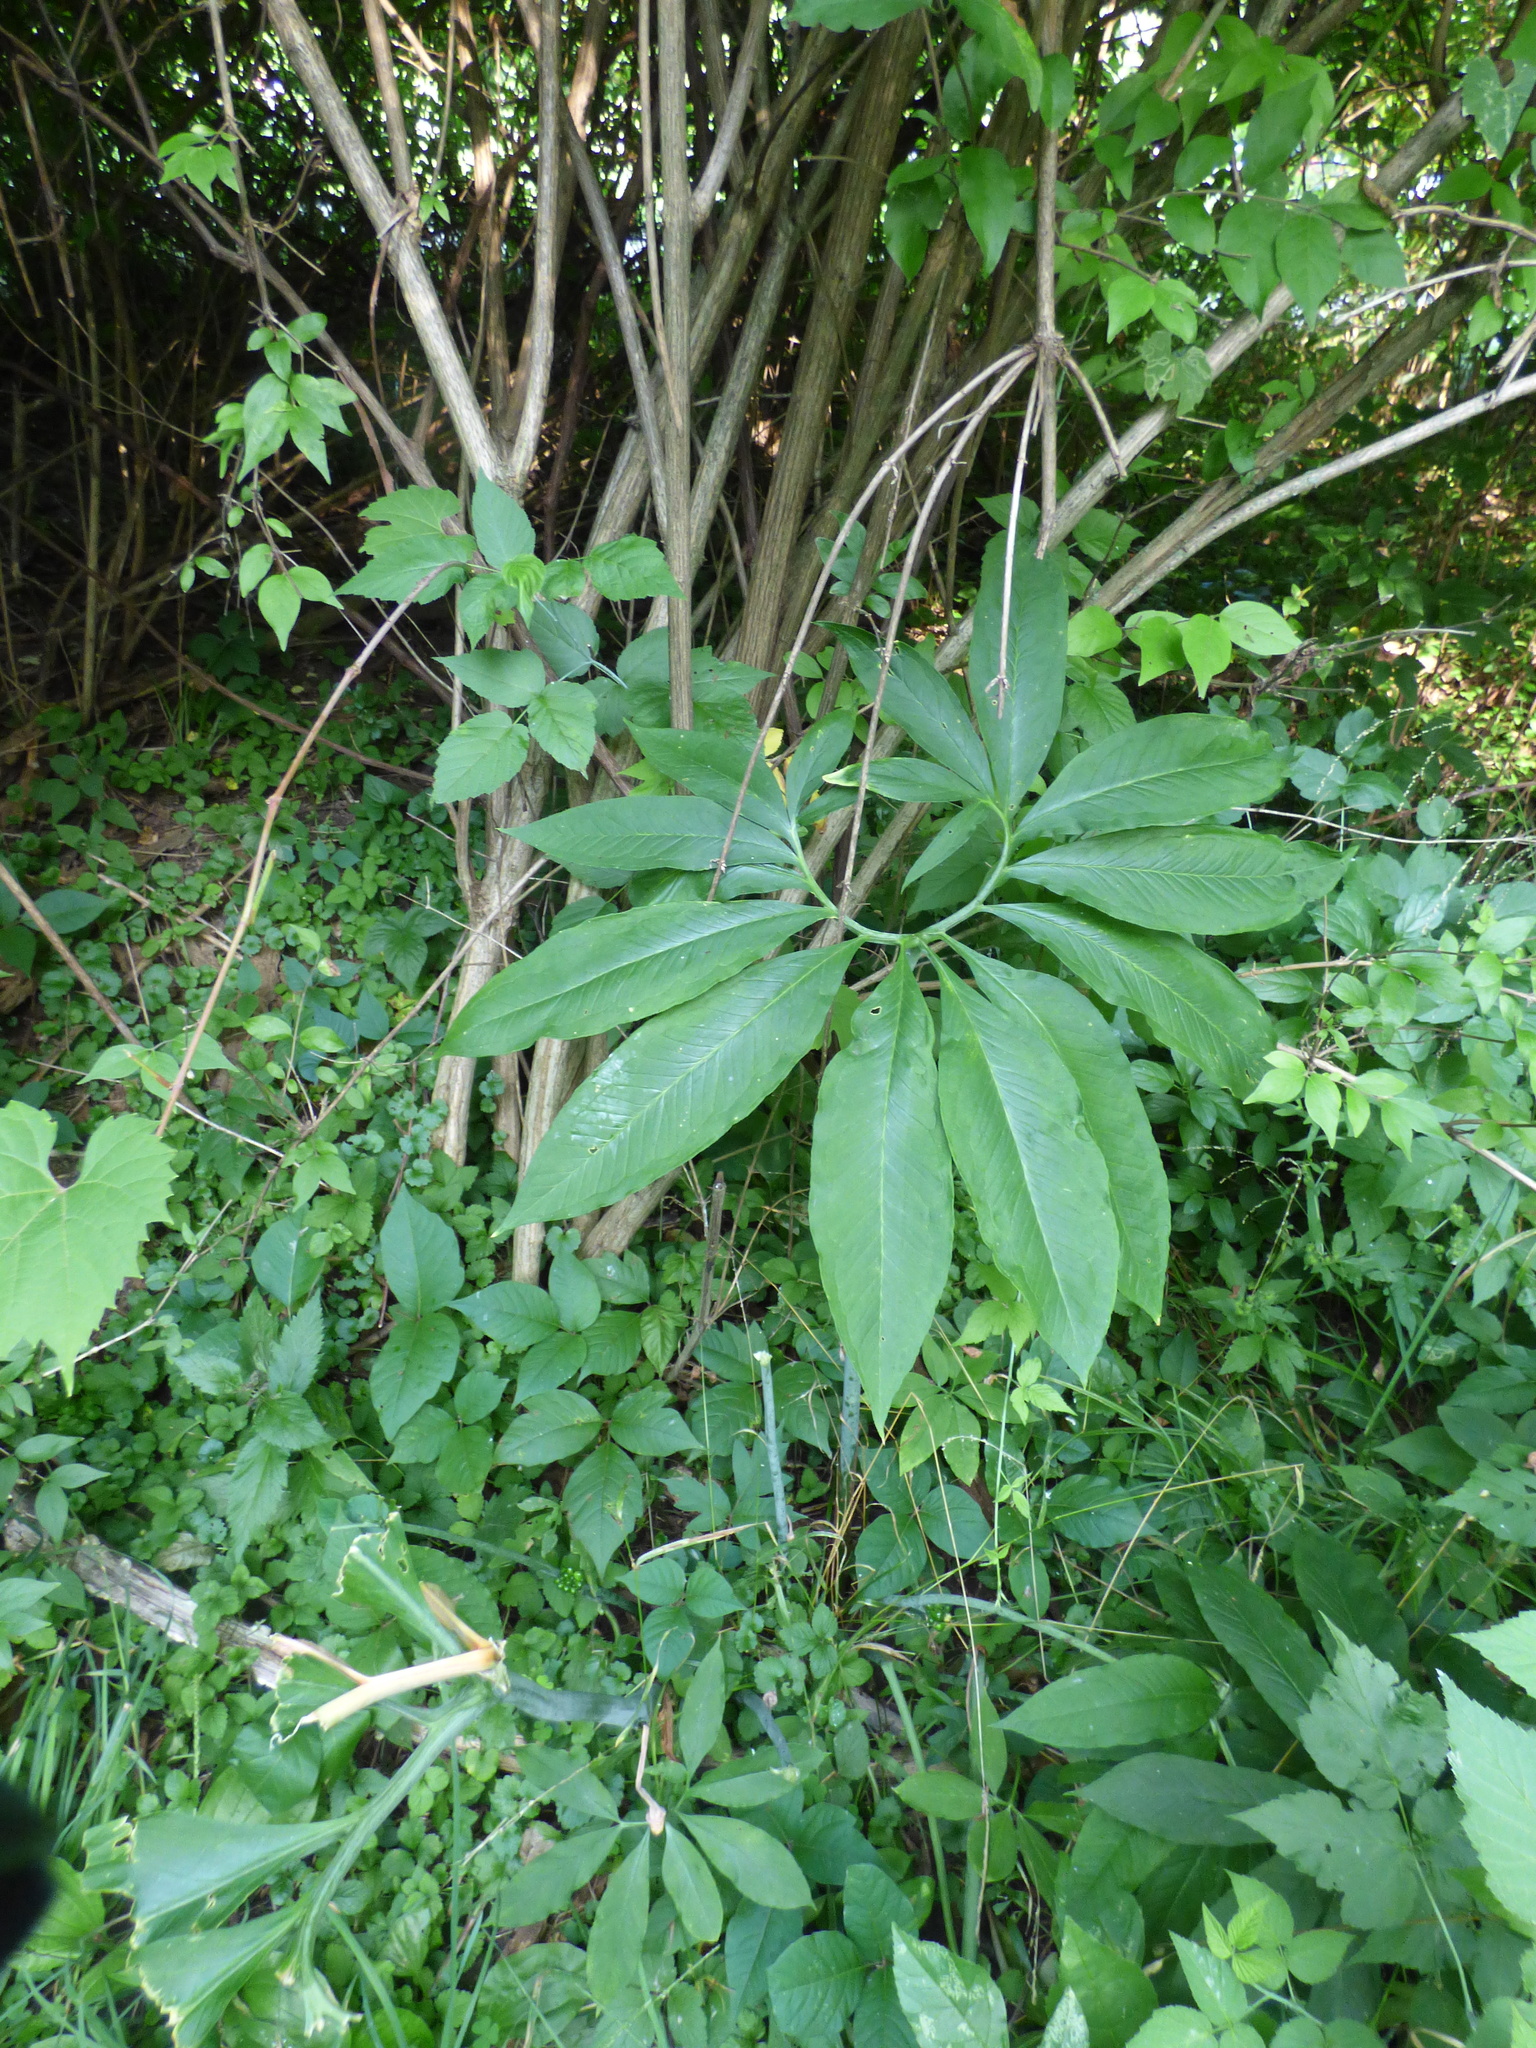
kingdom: Plantae
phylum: Tracheophyta
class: Liliopsida
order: Alismatales
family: Araceae
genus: Arisaema
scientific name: Arisaema dracontium
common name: Dragon-arum
